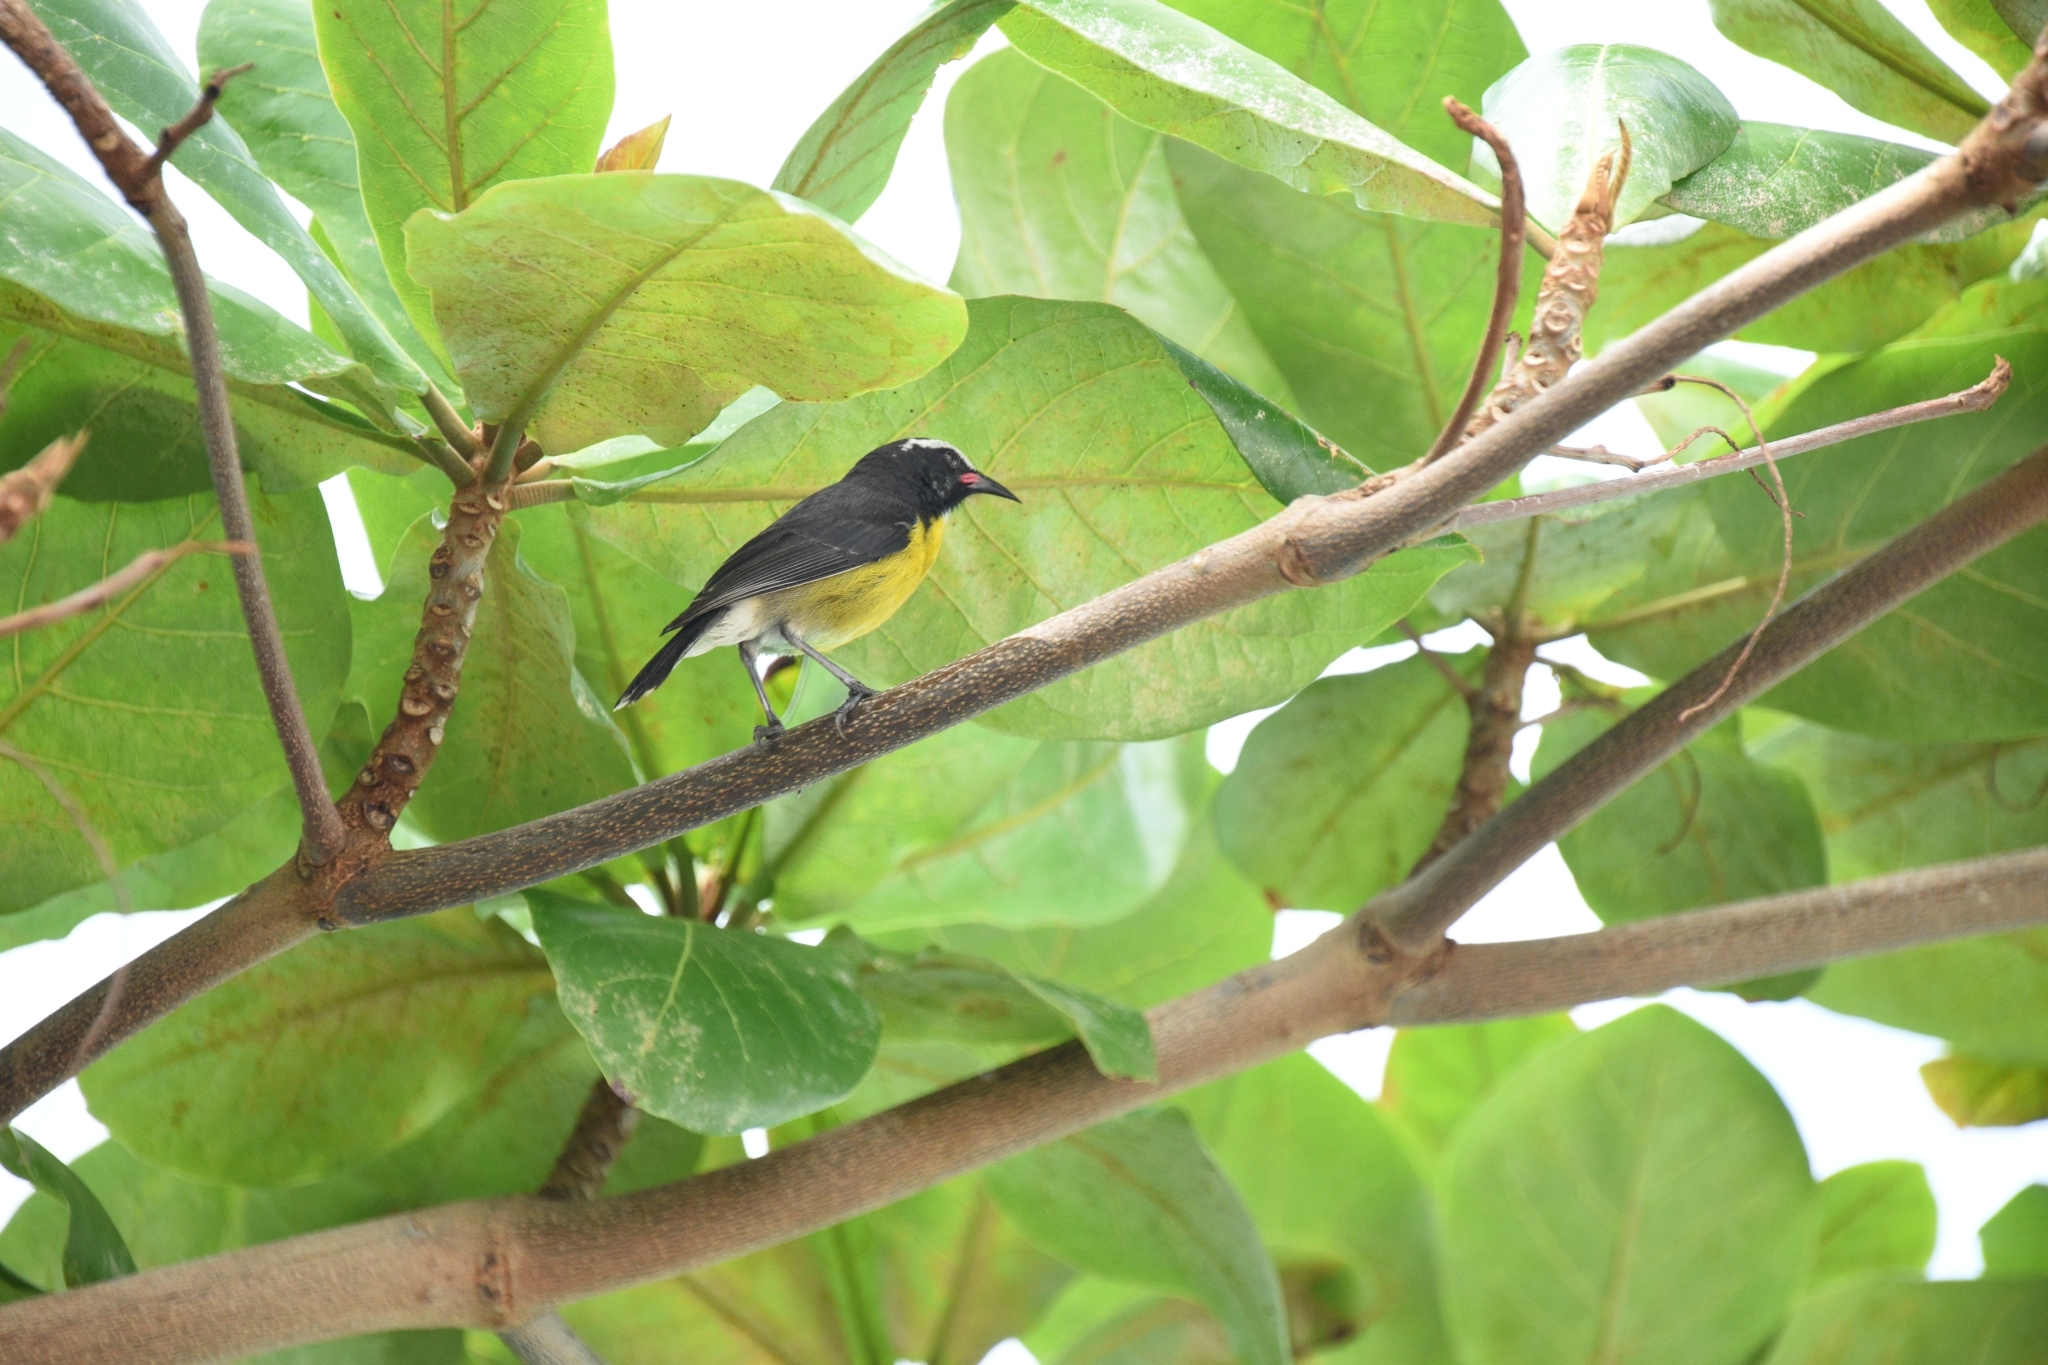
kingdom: Animalia
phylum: Chordata
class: Aves
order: Passeriformes
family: Thraupidae
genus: Coereba
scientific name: Coereba flaveola
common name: Bananaquit
